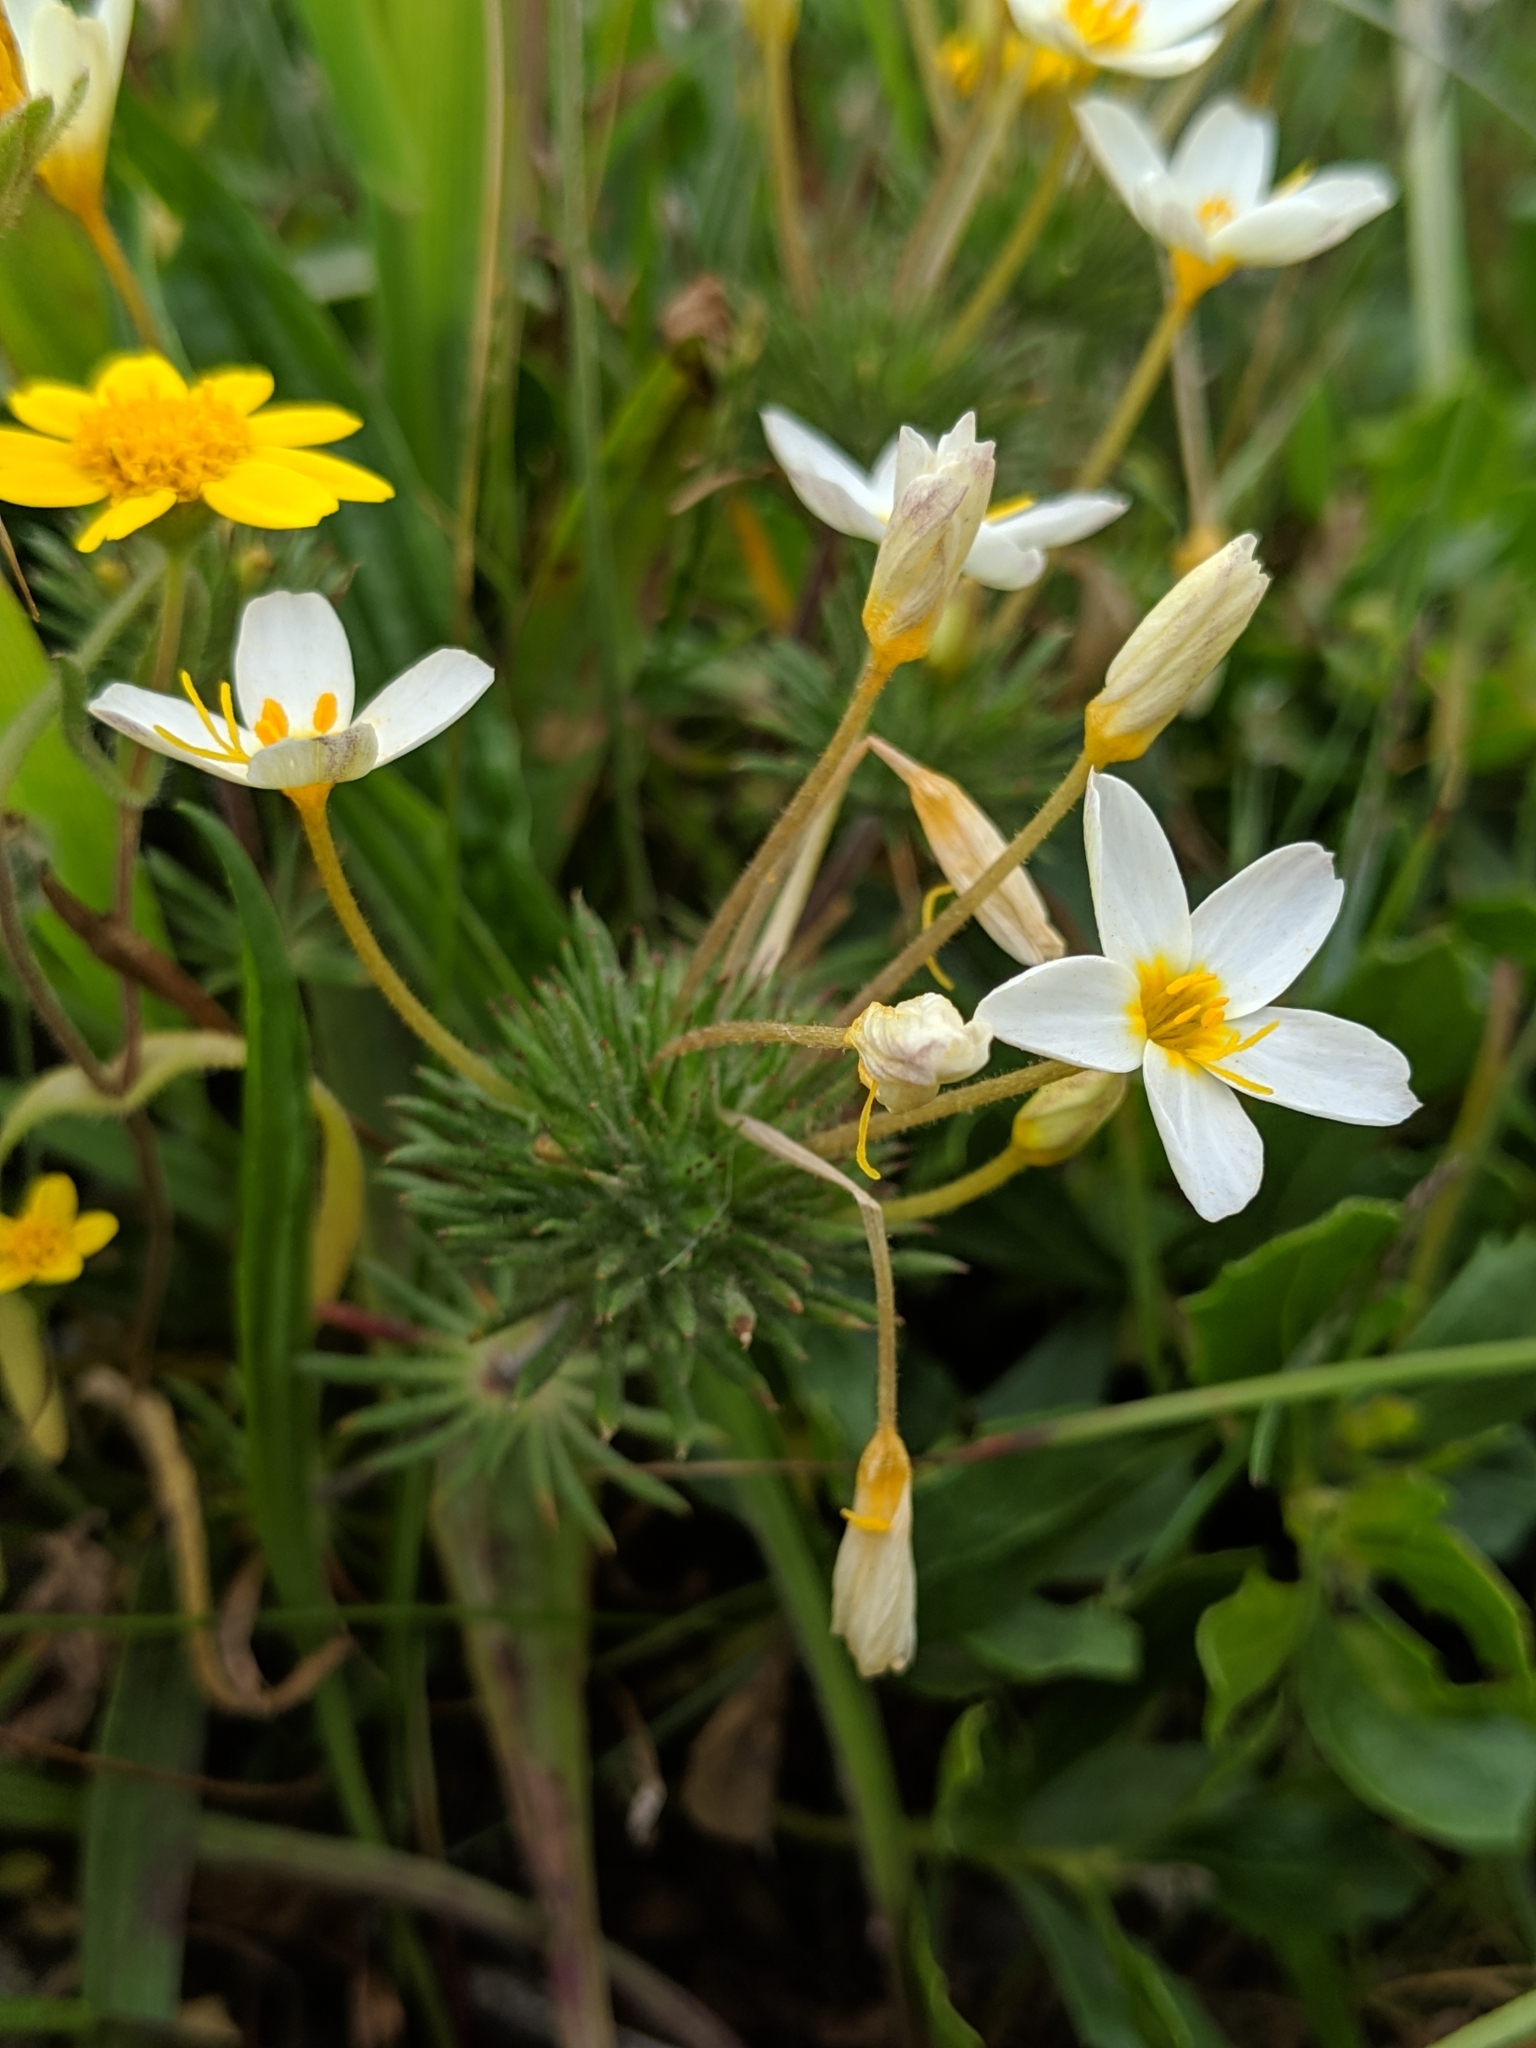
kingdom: Plantae
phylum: Tracheophyta
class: Magnoliopsida
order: Ericales
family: Polemoniaceae
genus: Leptosiphon
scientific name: Leptosiphon parviflorus
